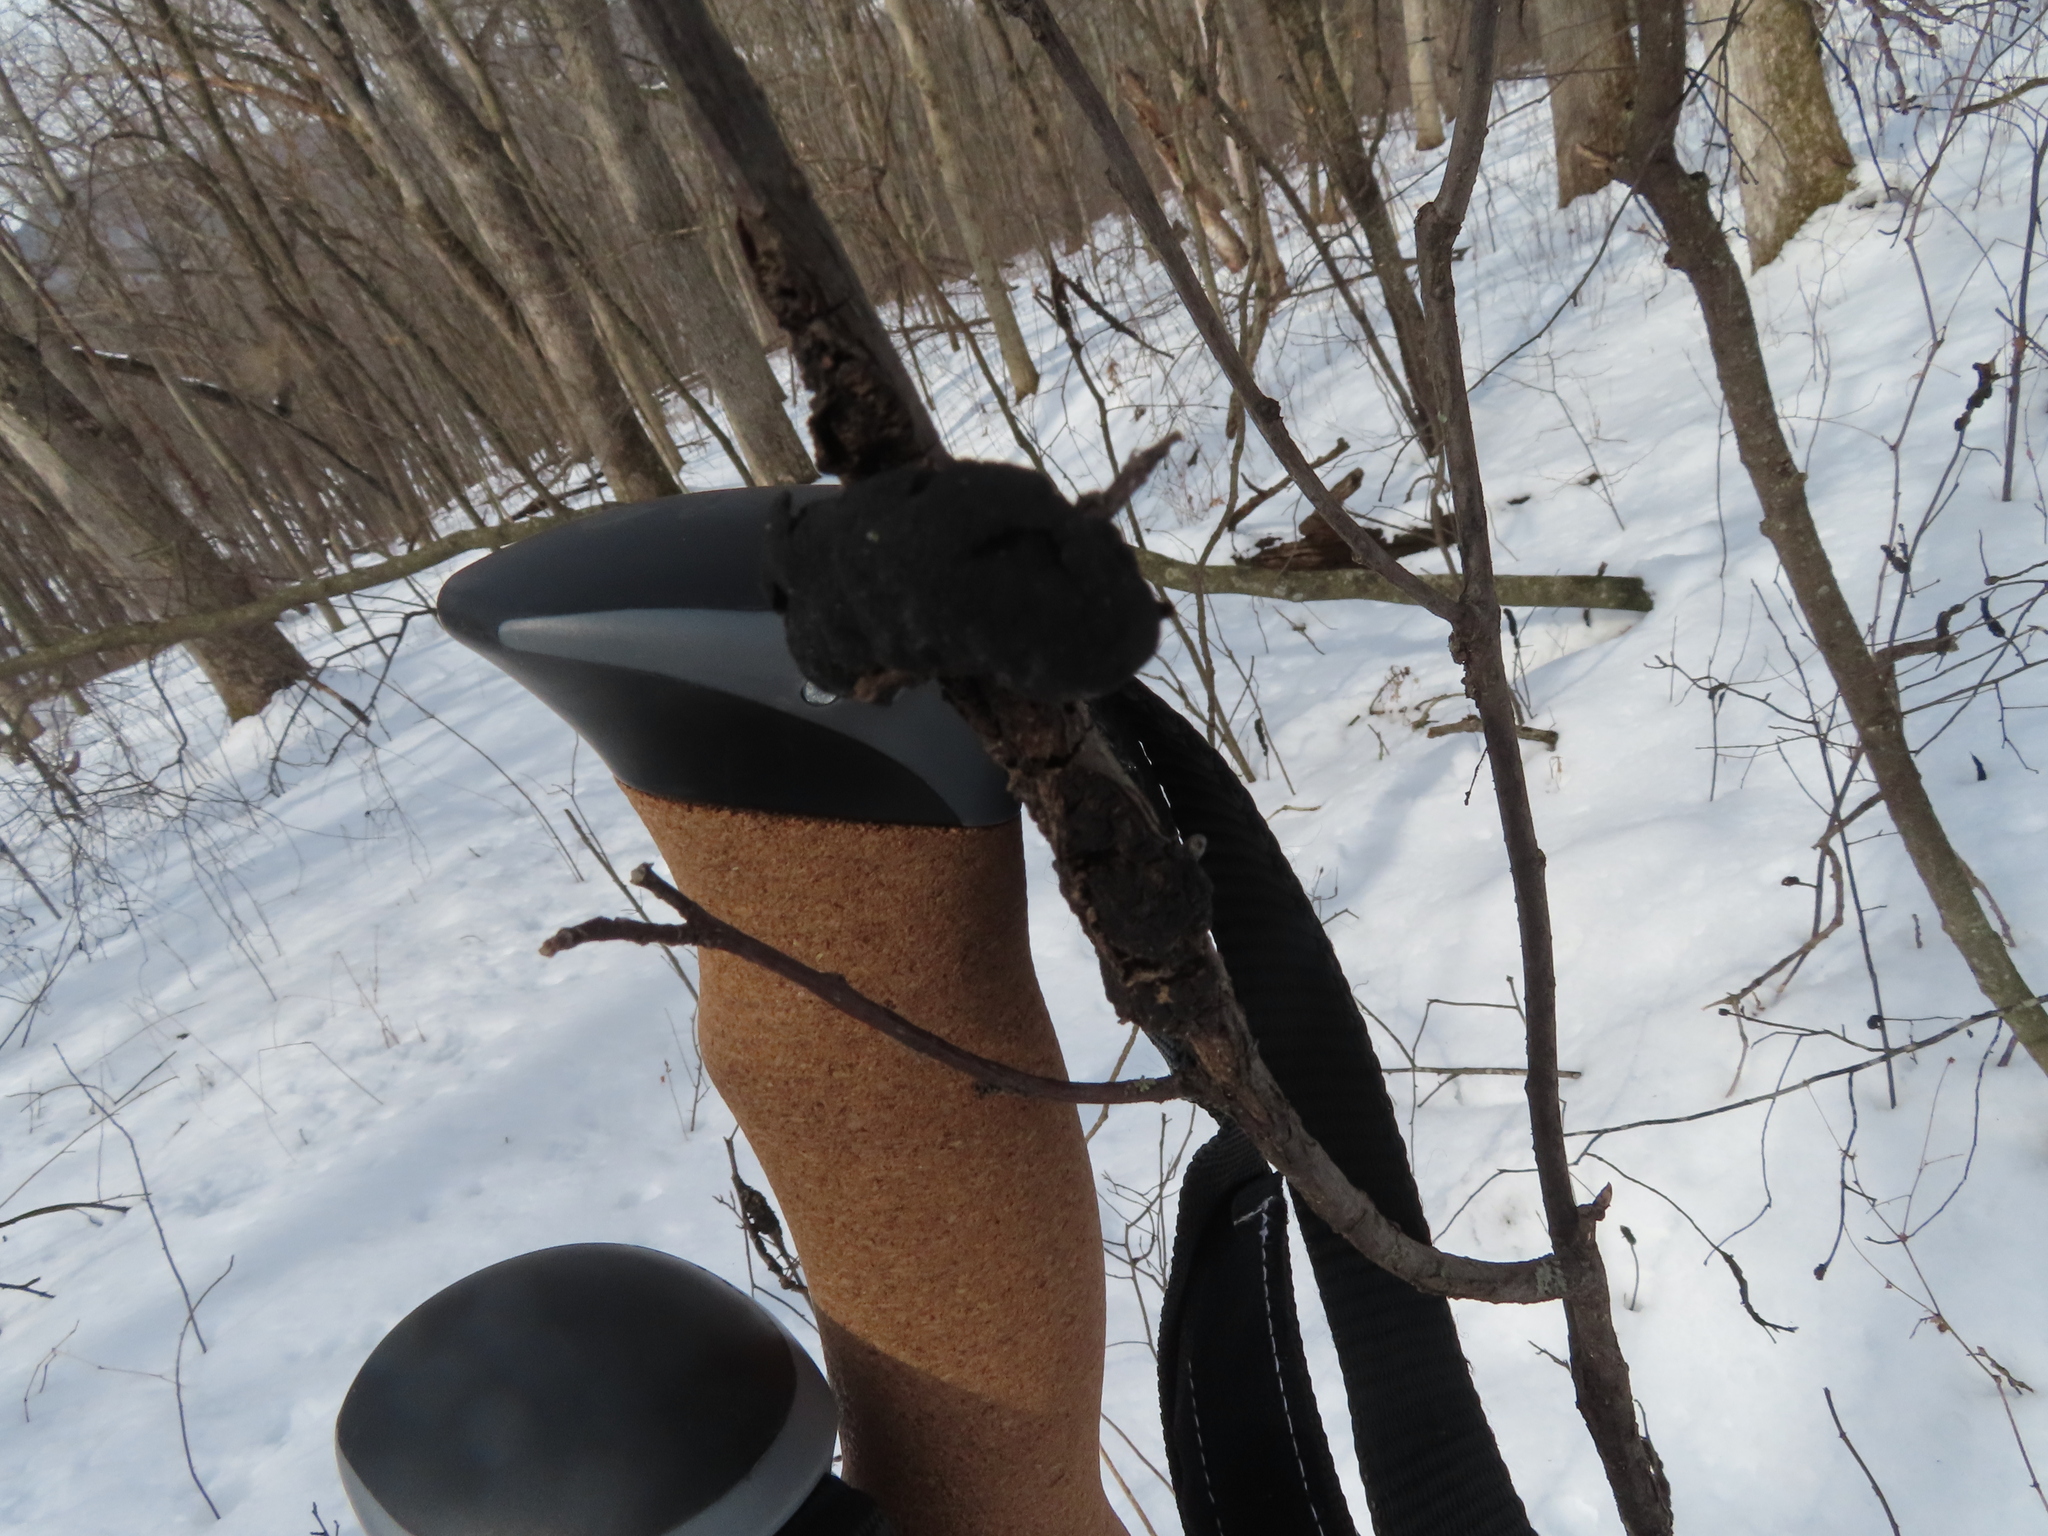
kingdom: Fungi
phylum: Ascomycota
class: Dothideomycetes
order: Venturiales
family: Venturiaceae
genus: Apiosporina
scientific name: Apiosporina morbosa
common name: Black knot
